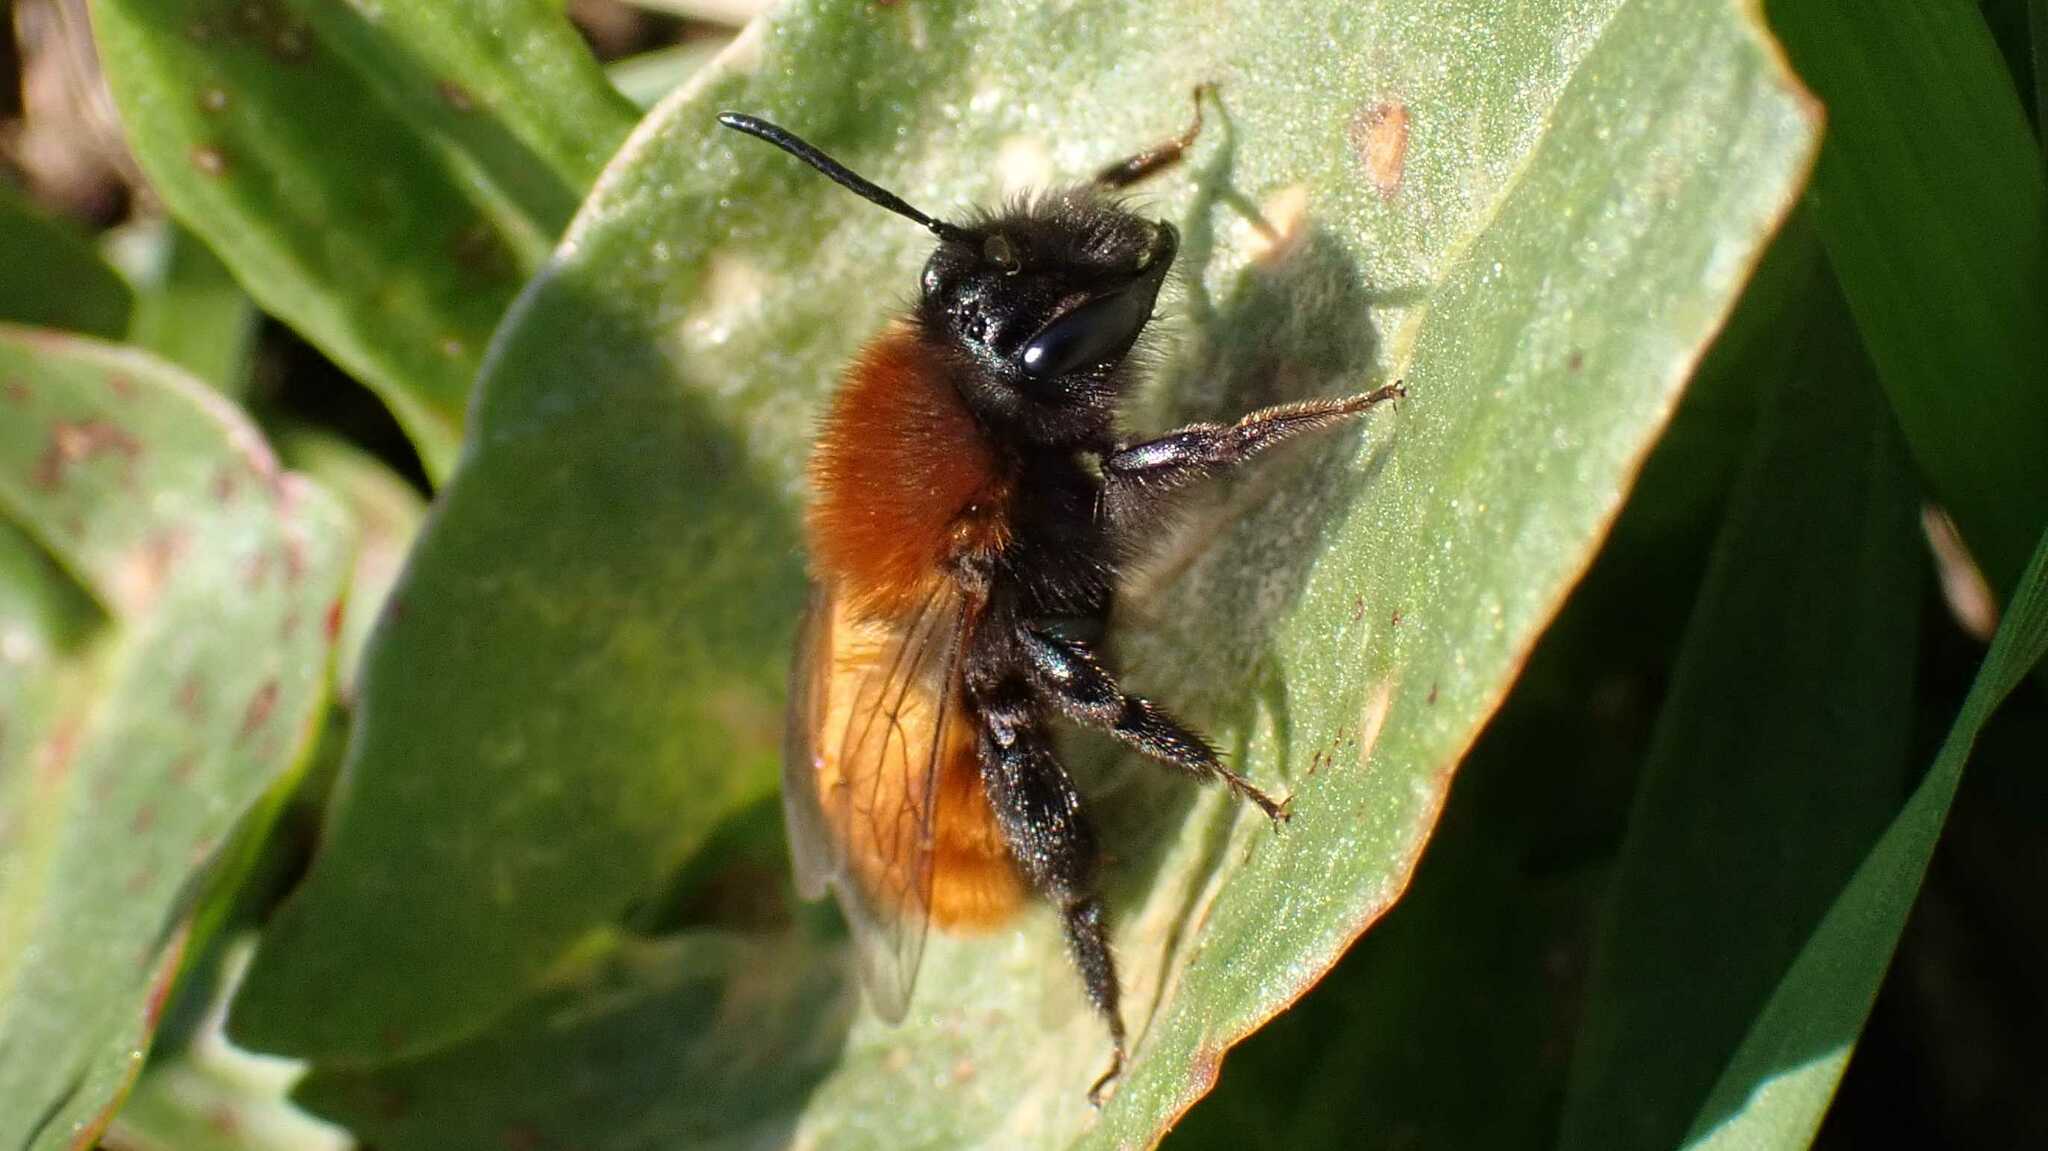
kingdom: Animalia
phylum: Arthropoda
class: Insecta
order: Hymenoptera
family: Andrenidae
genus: Andrena
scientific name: Andrena fulva
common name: Tawny mining bee
